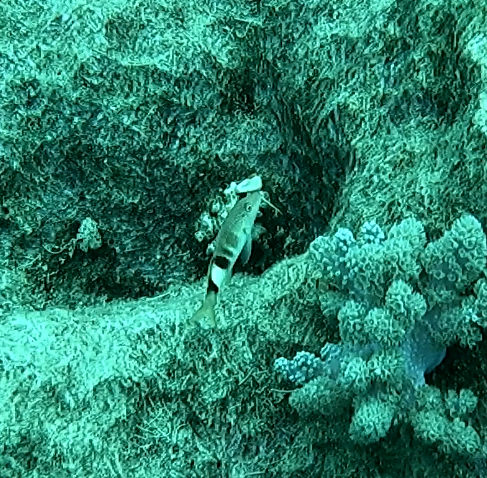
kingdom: Animalia
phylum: Chordata
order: Perciformes
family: Mullidae
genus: Parupeneus
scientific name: Parupeneus multifasciatus
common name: Manybar goatfish
